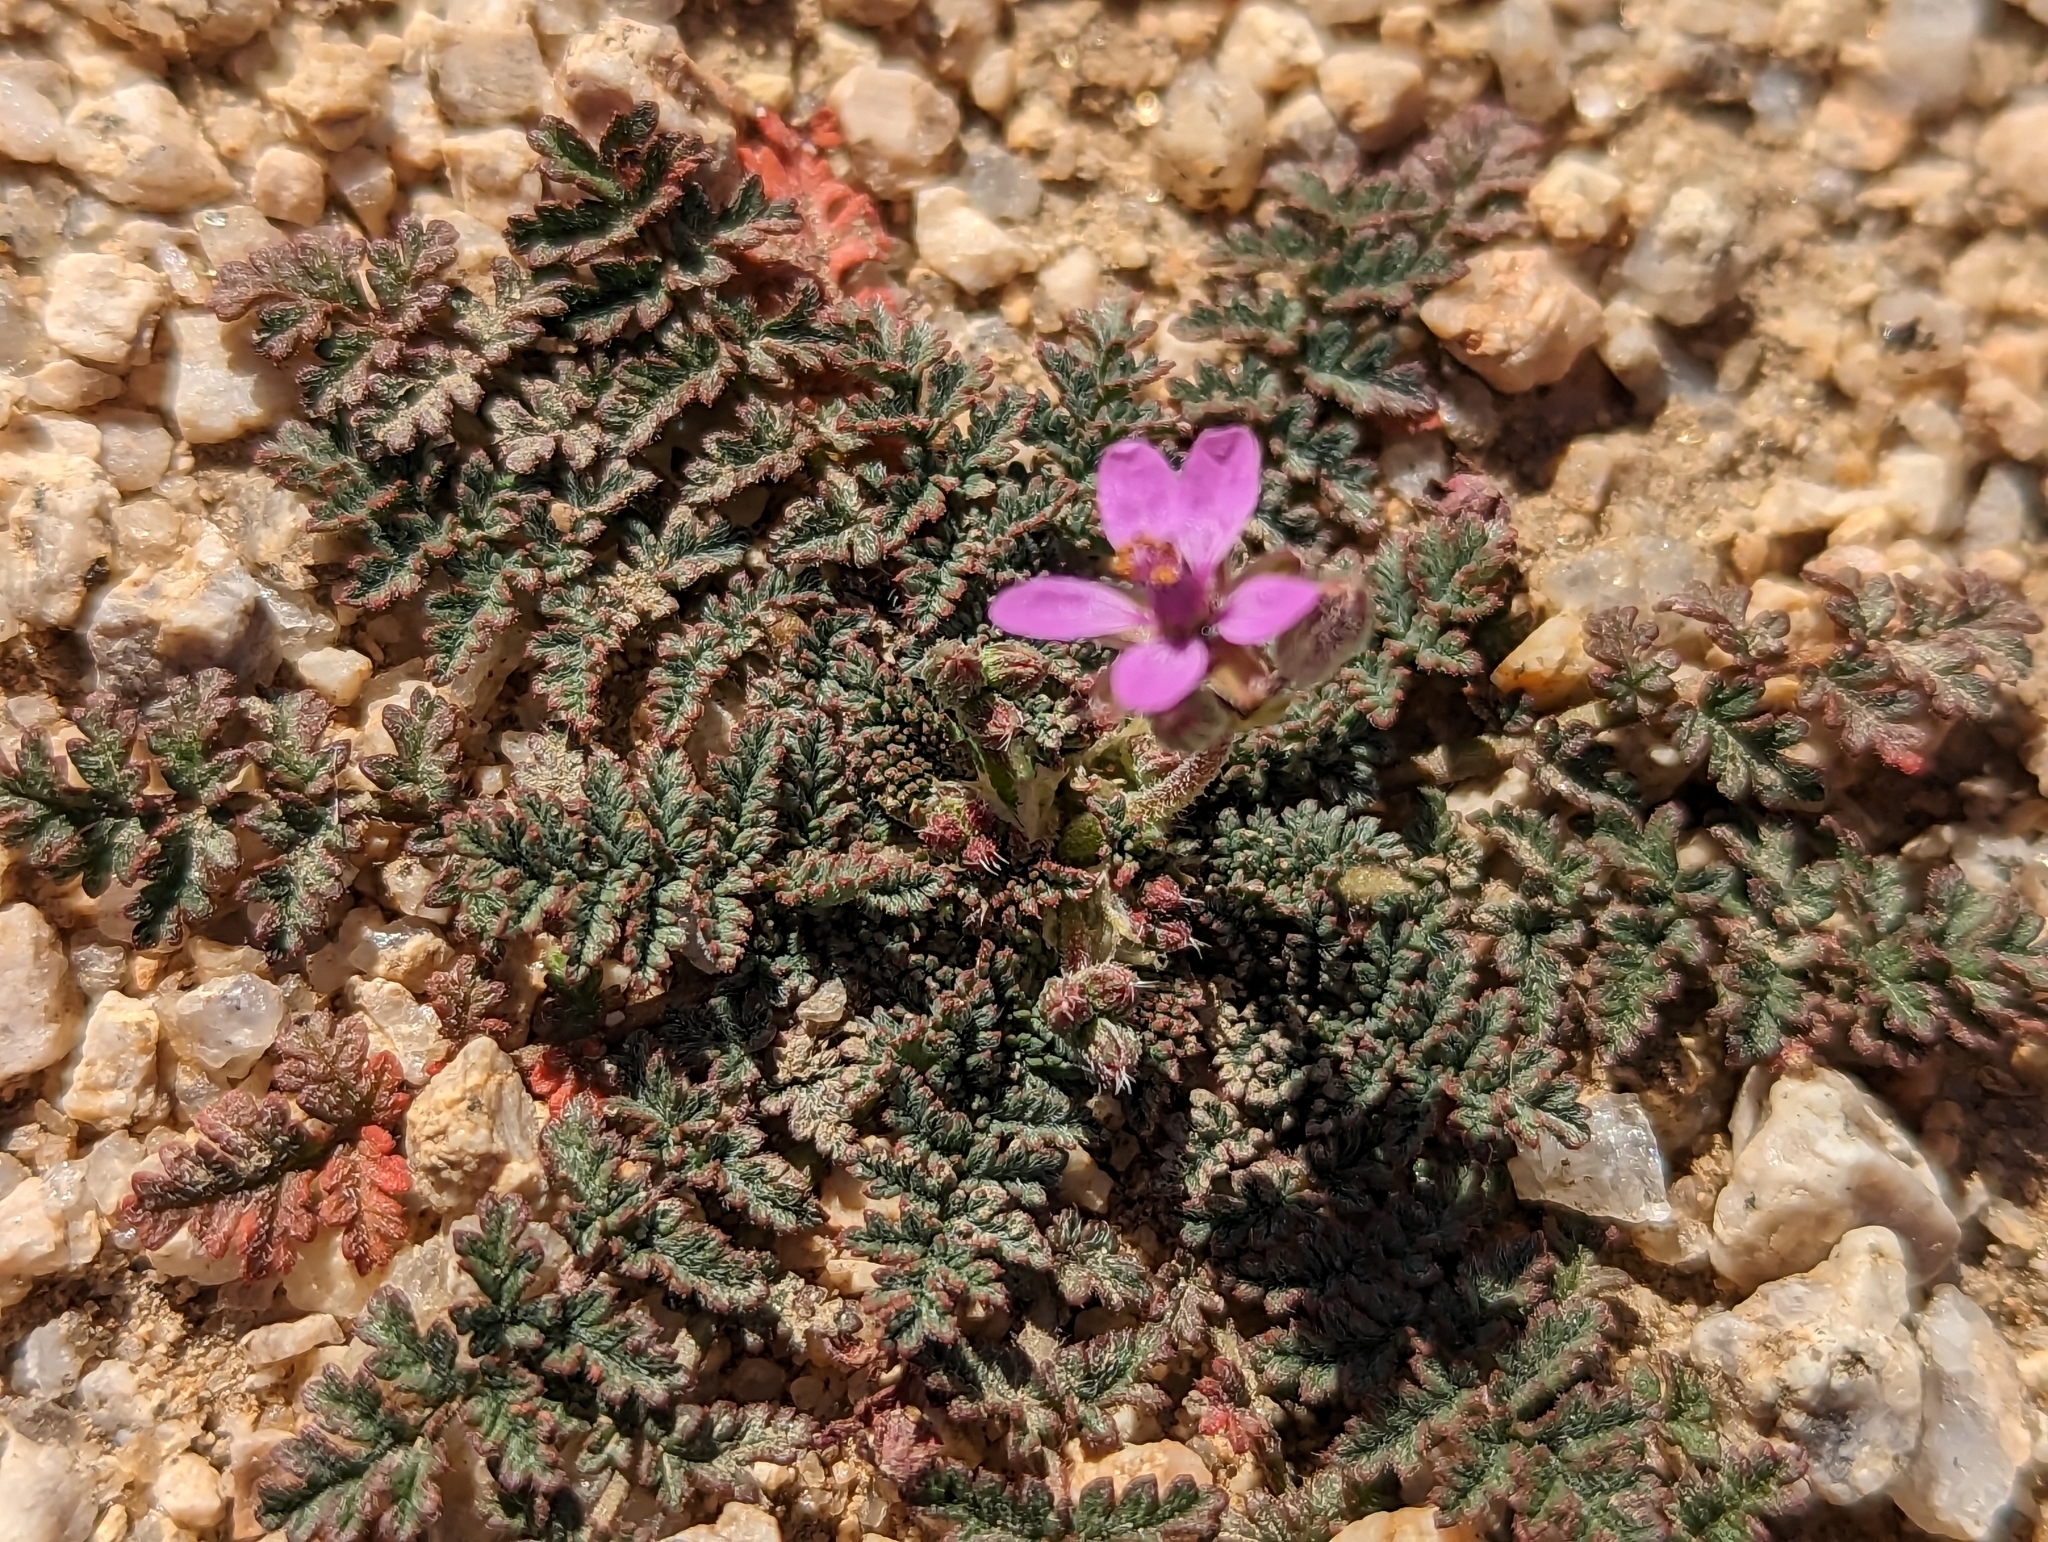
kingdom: Plantae
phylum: Tracheophyta
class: Magnoliopsida
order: Geraniales
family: Geraniaceae
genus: Erodium
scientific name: Erodium cicutarium
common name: Common stork's-bill
